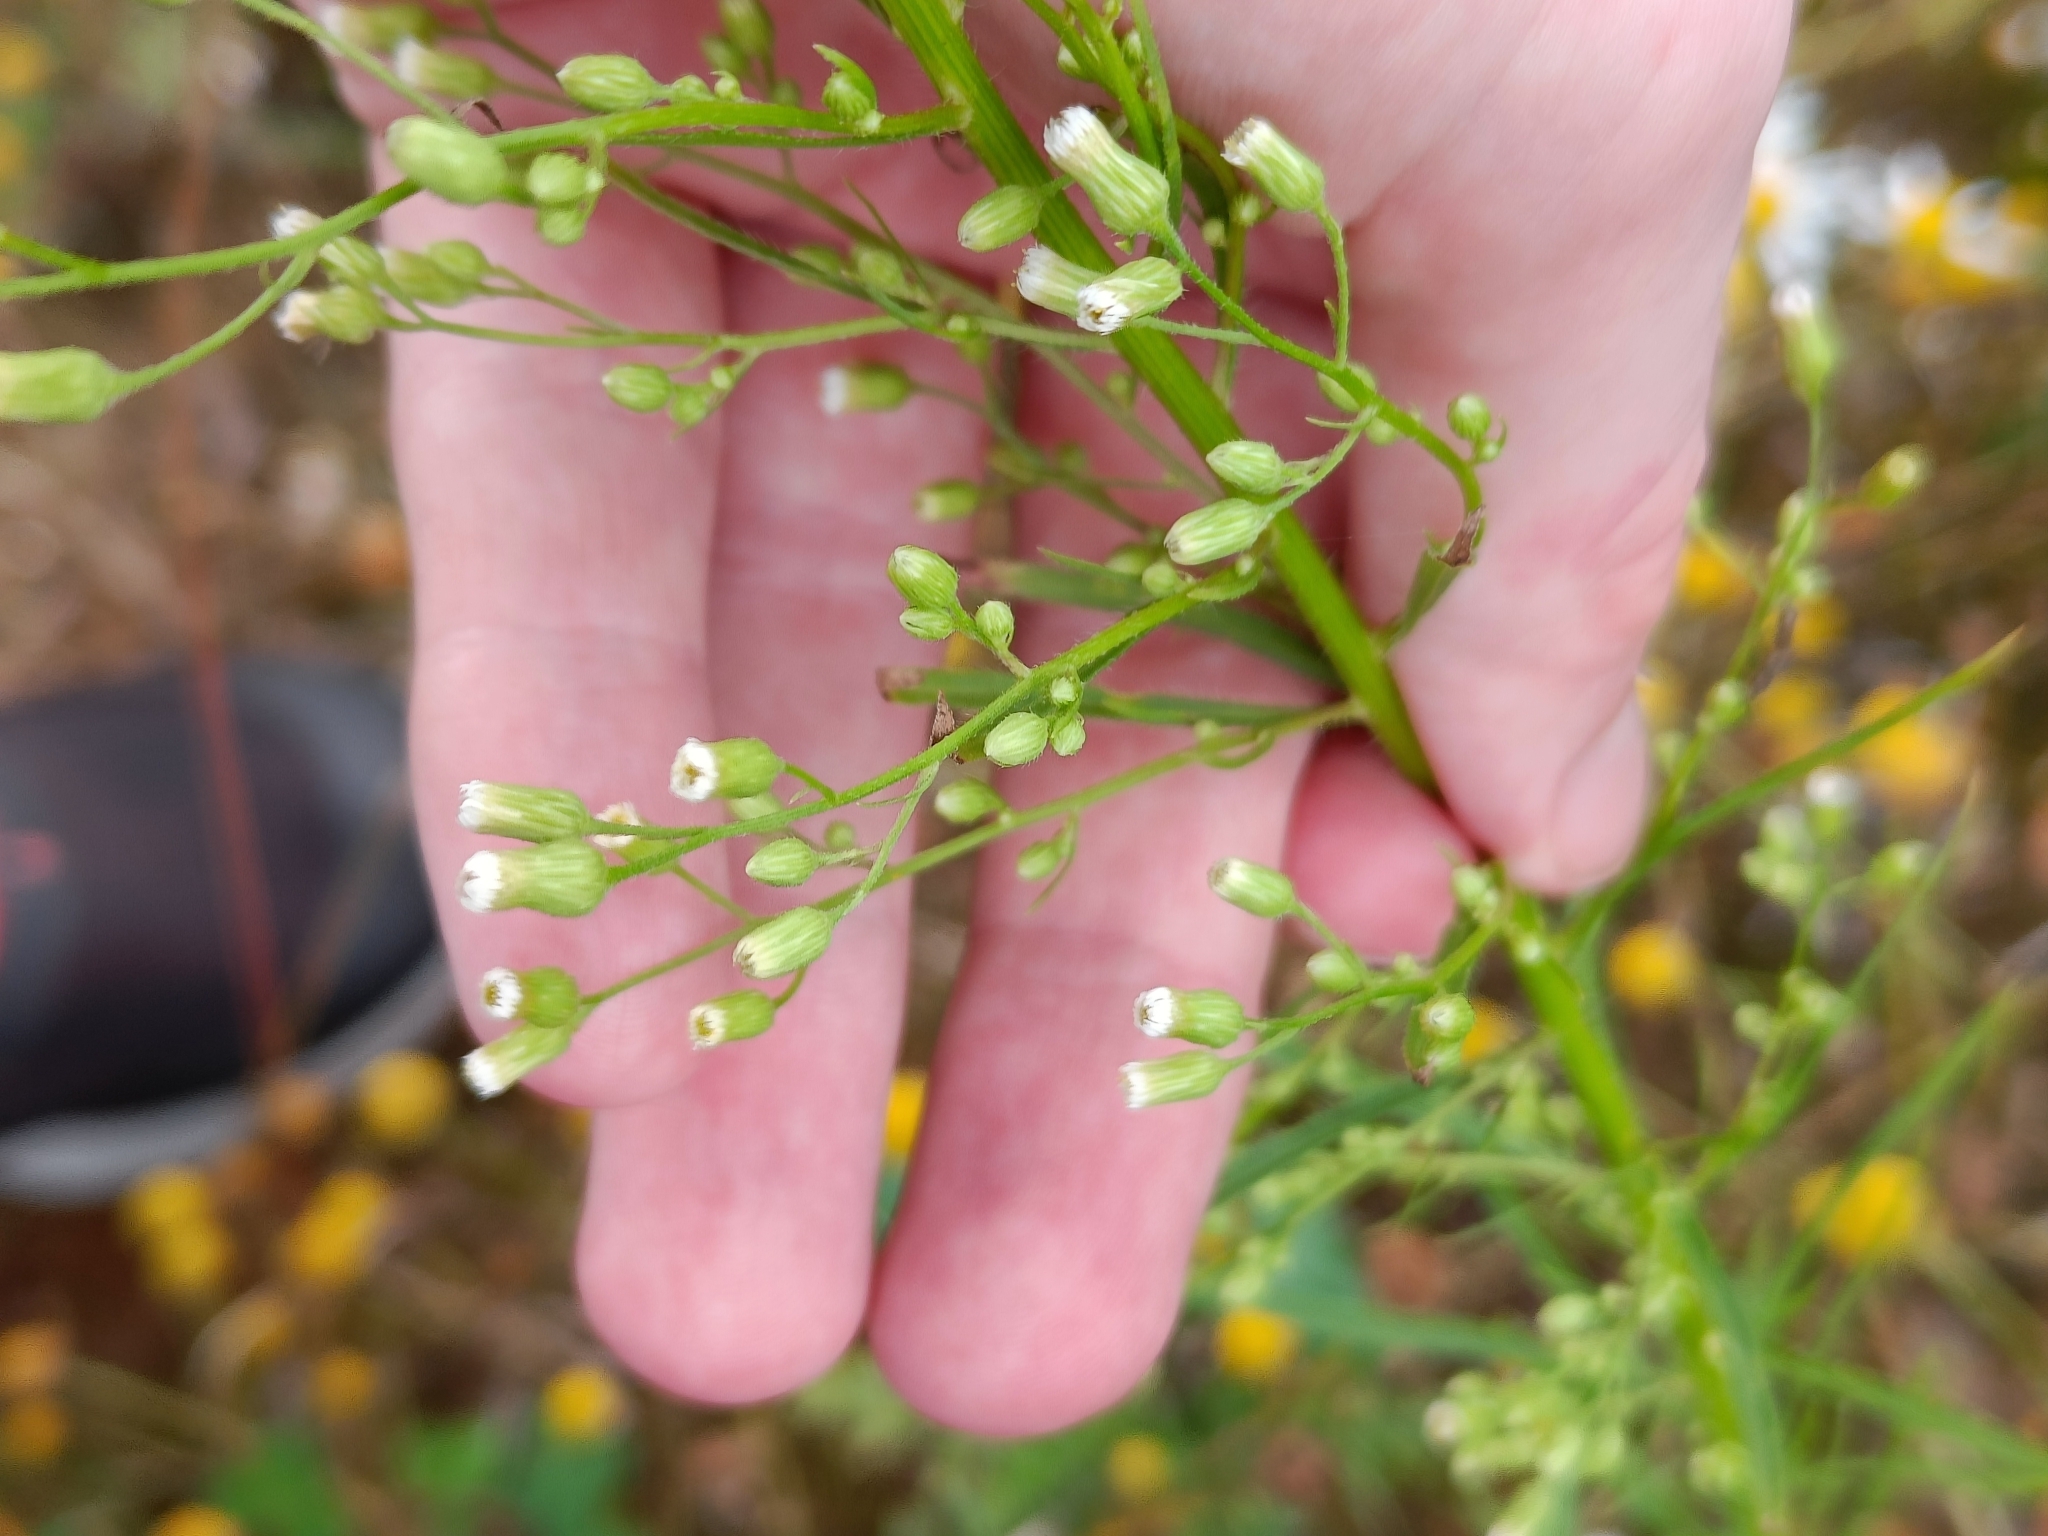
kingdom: Plantae
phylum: Tracheophyta
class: Magnoliopsida
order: Asterales
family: Asteraceae
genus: Erigeron
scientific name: Erigeron canadensis
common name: Canadian fleabane
